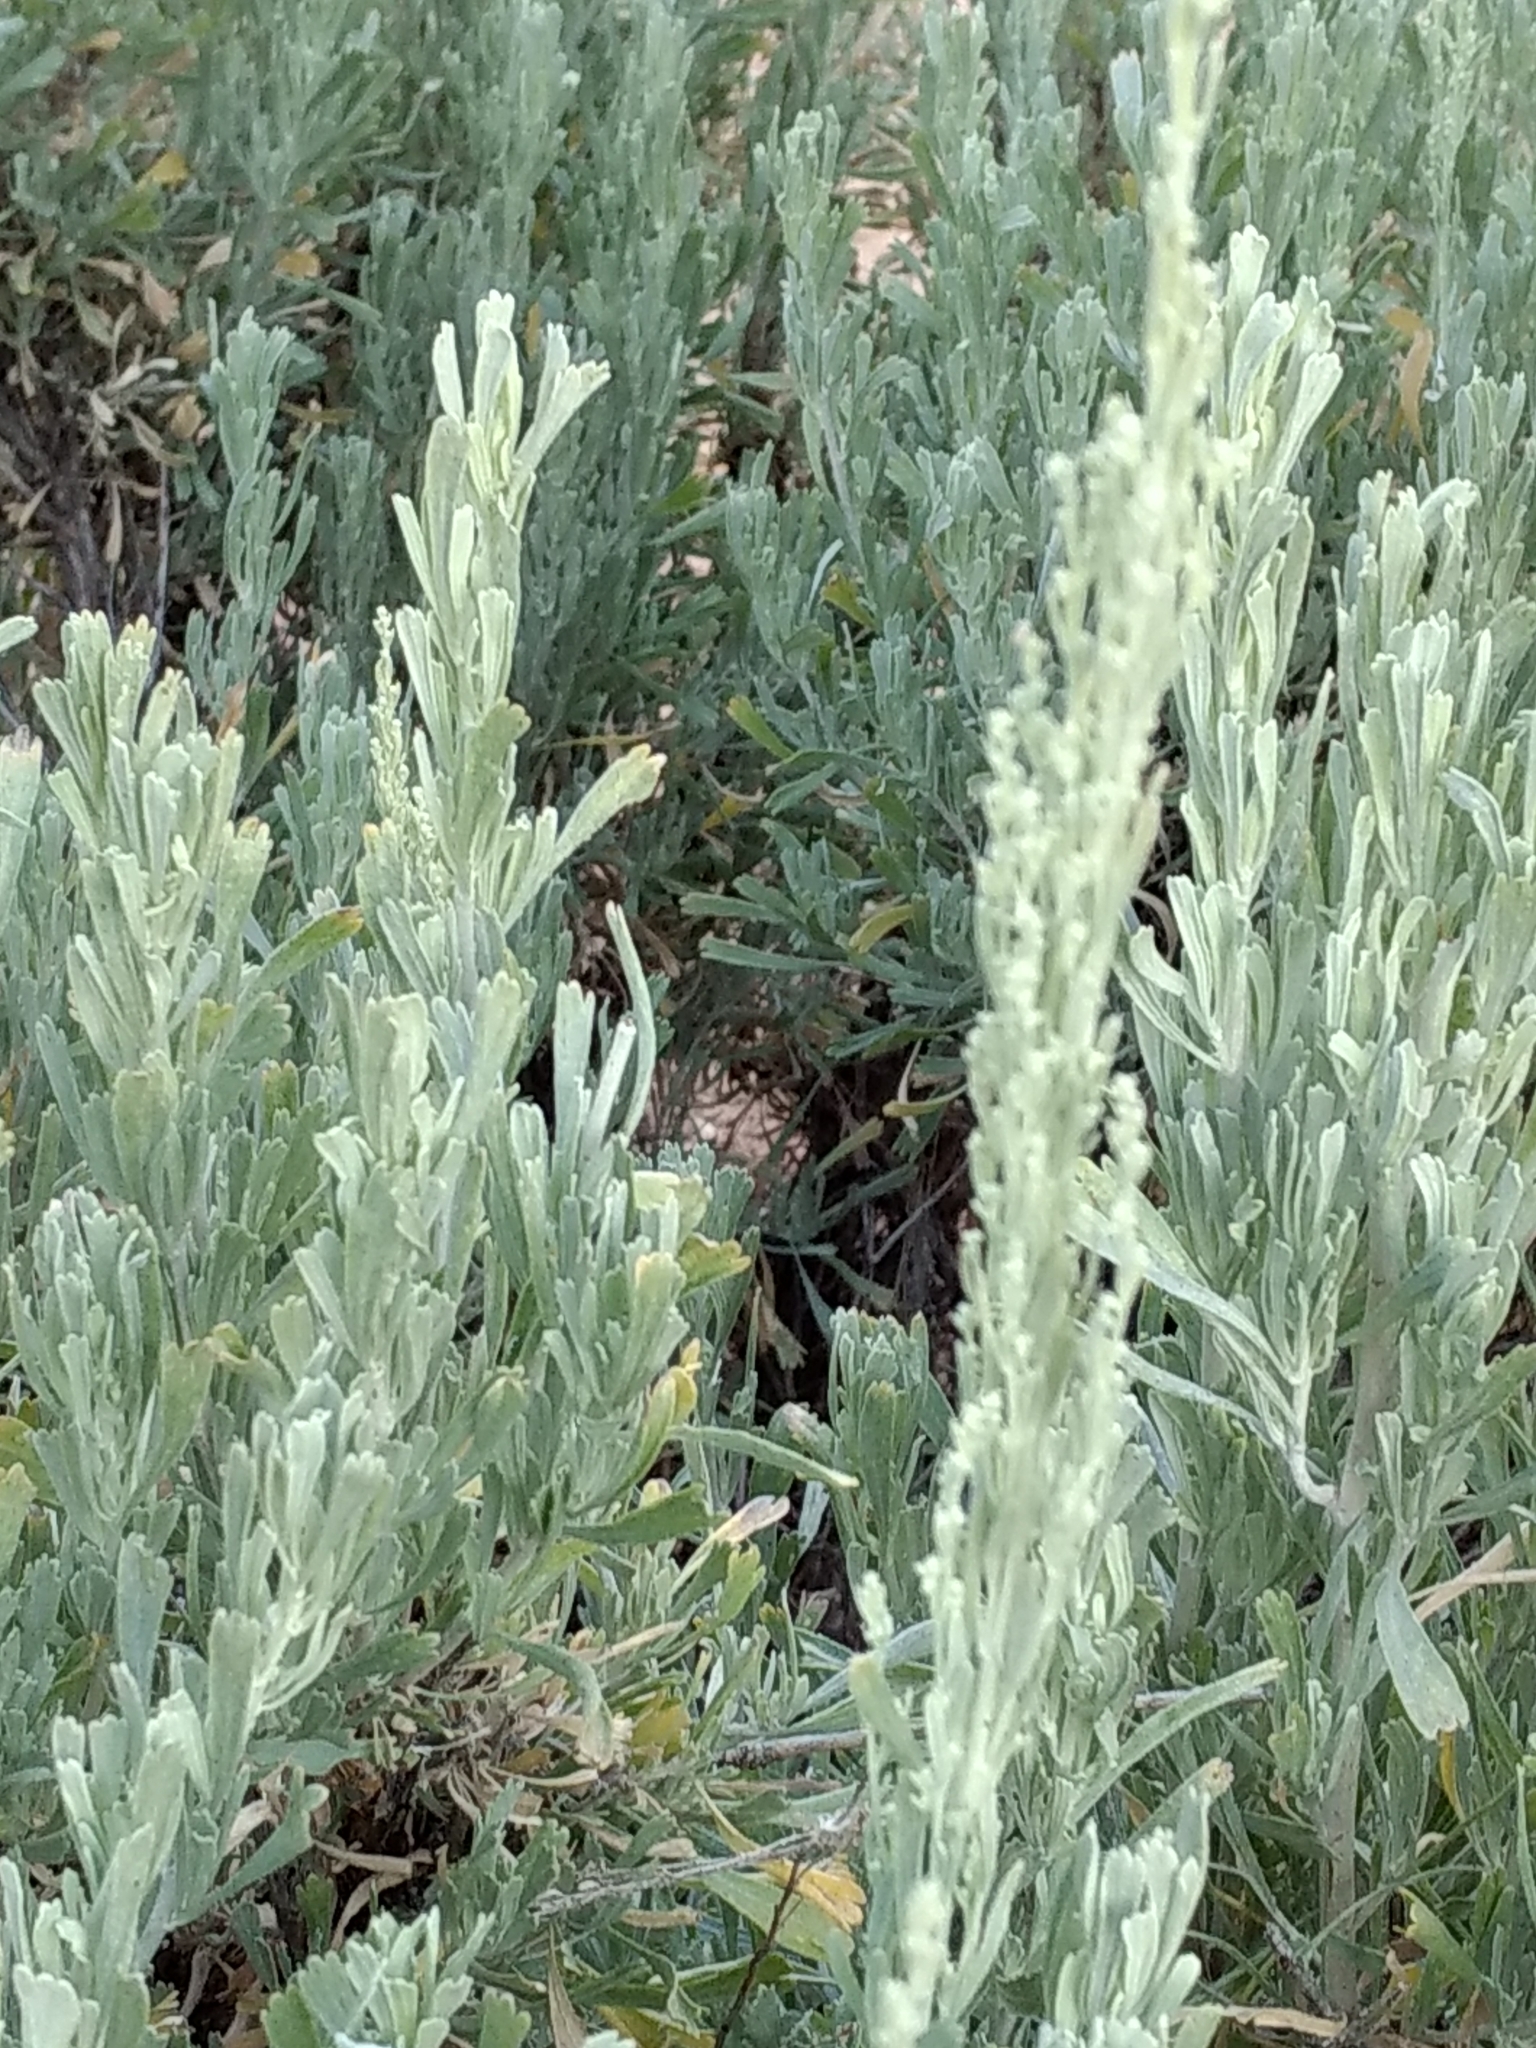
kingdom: Plantae
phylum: Tracheophyta
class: Magnoliopsida
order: Asterales
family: Asteraceae
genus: Artemisia
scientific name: Artemisia tridentata
